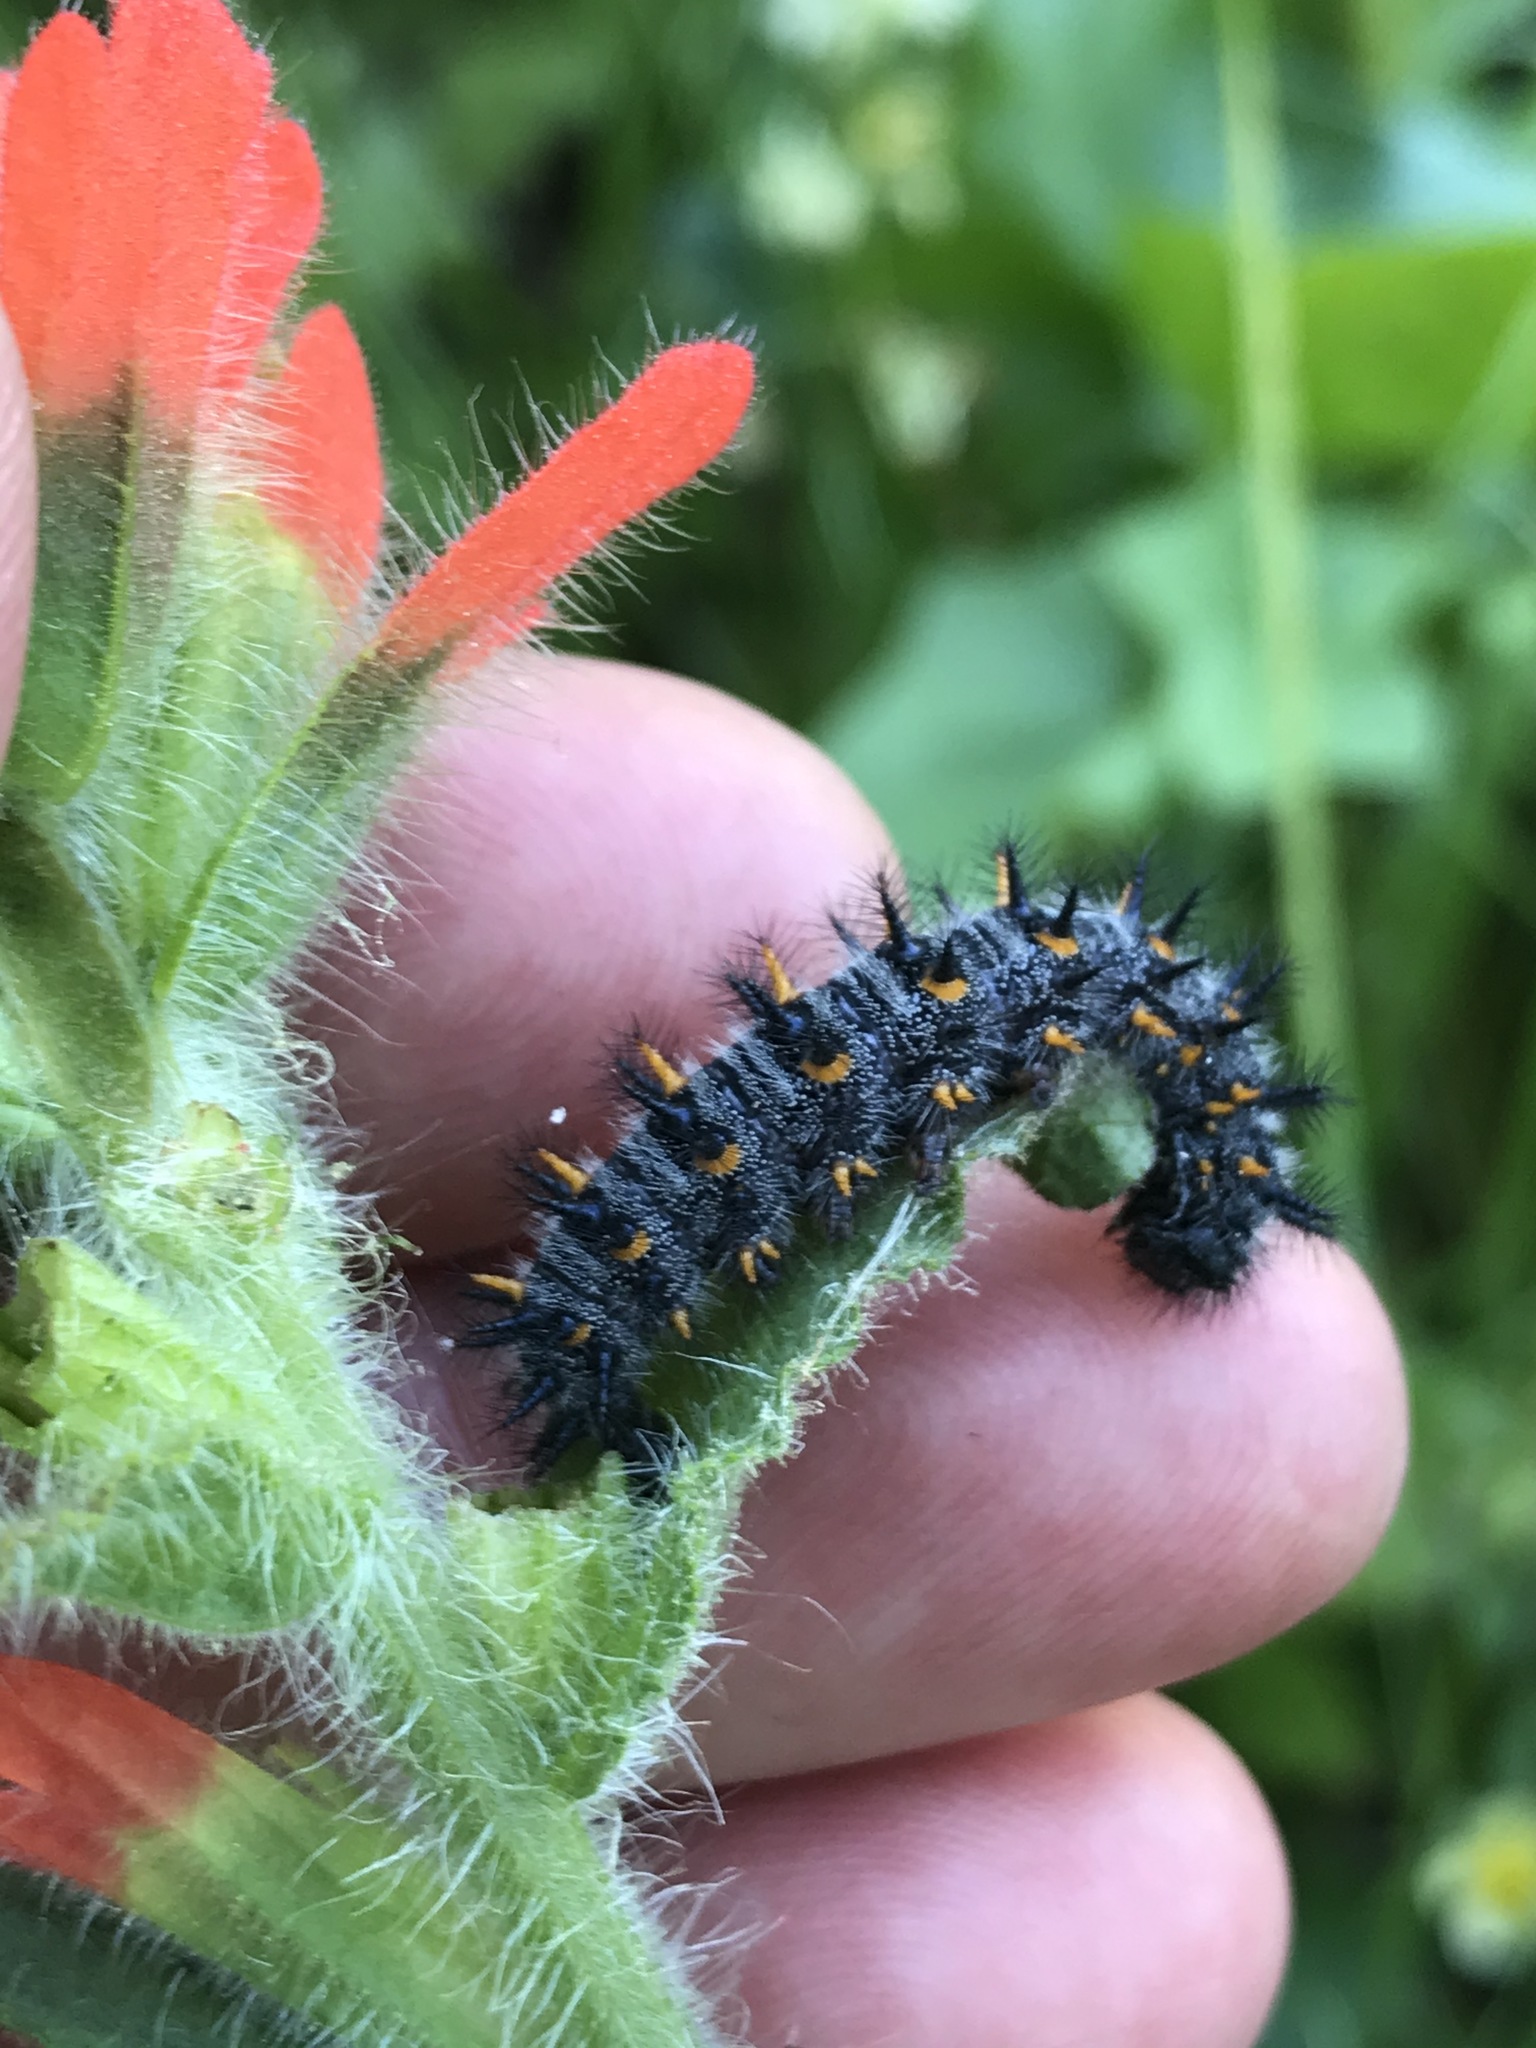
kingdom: Animalia
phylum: Arthropoda
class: Insecta
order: Lepidoptera
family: Nymphalidae
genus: Occidryas
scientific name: Occidryas chalcedona
